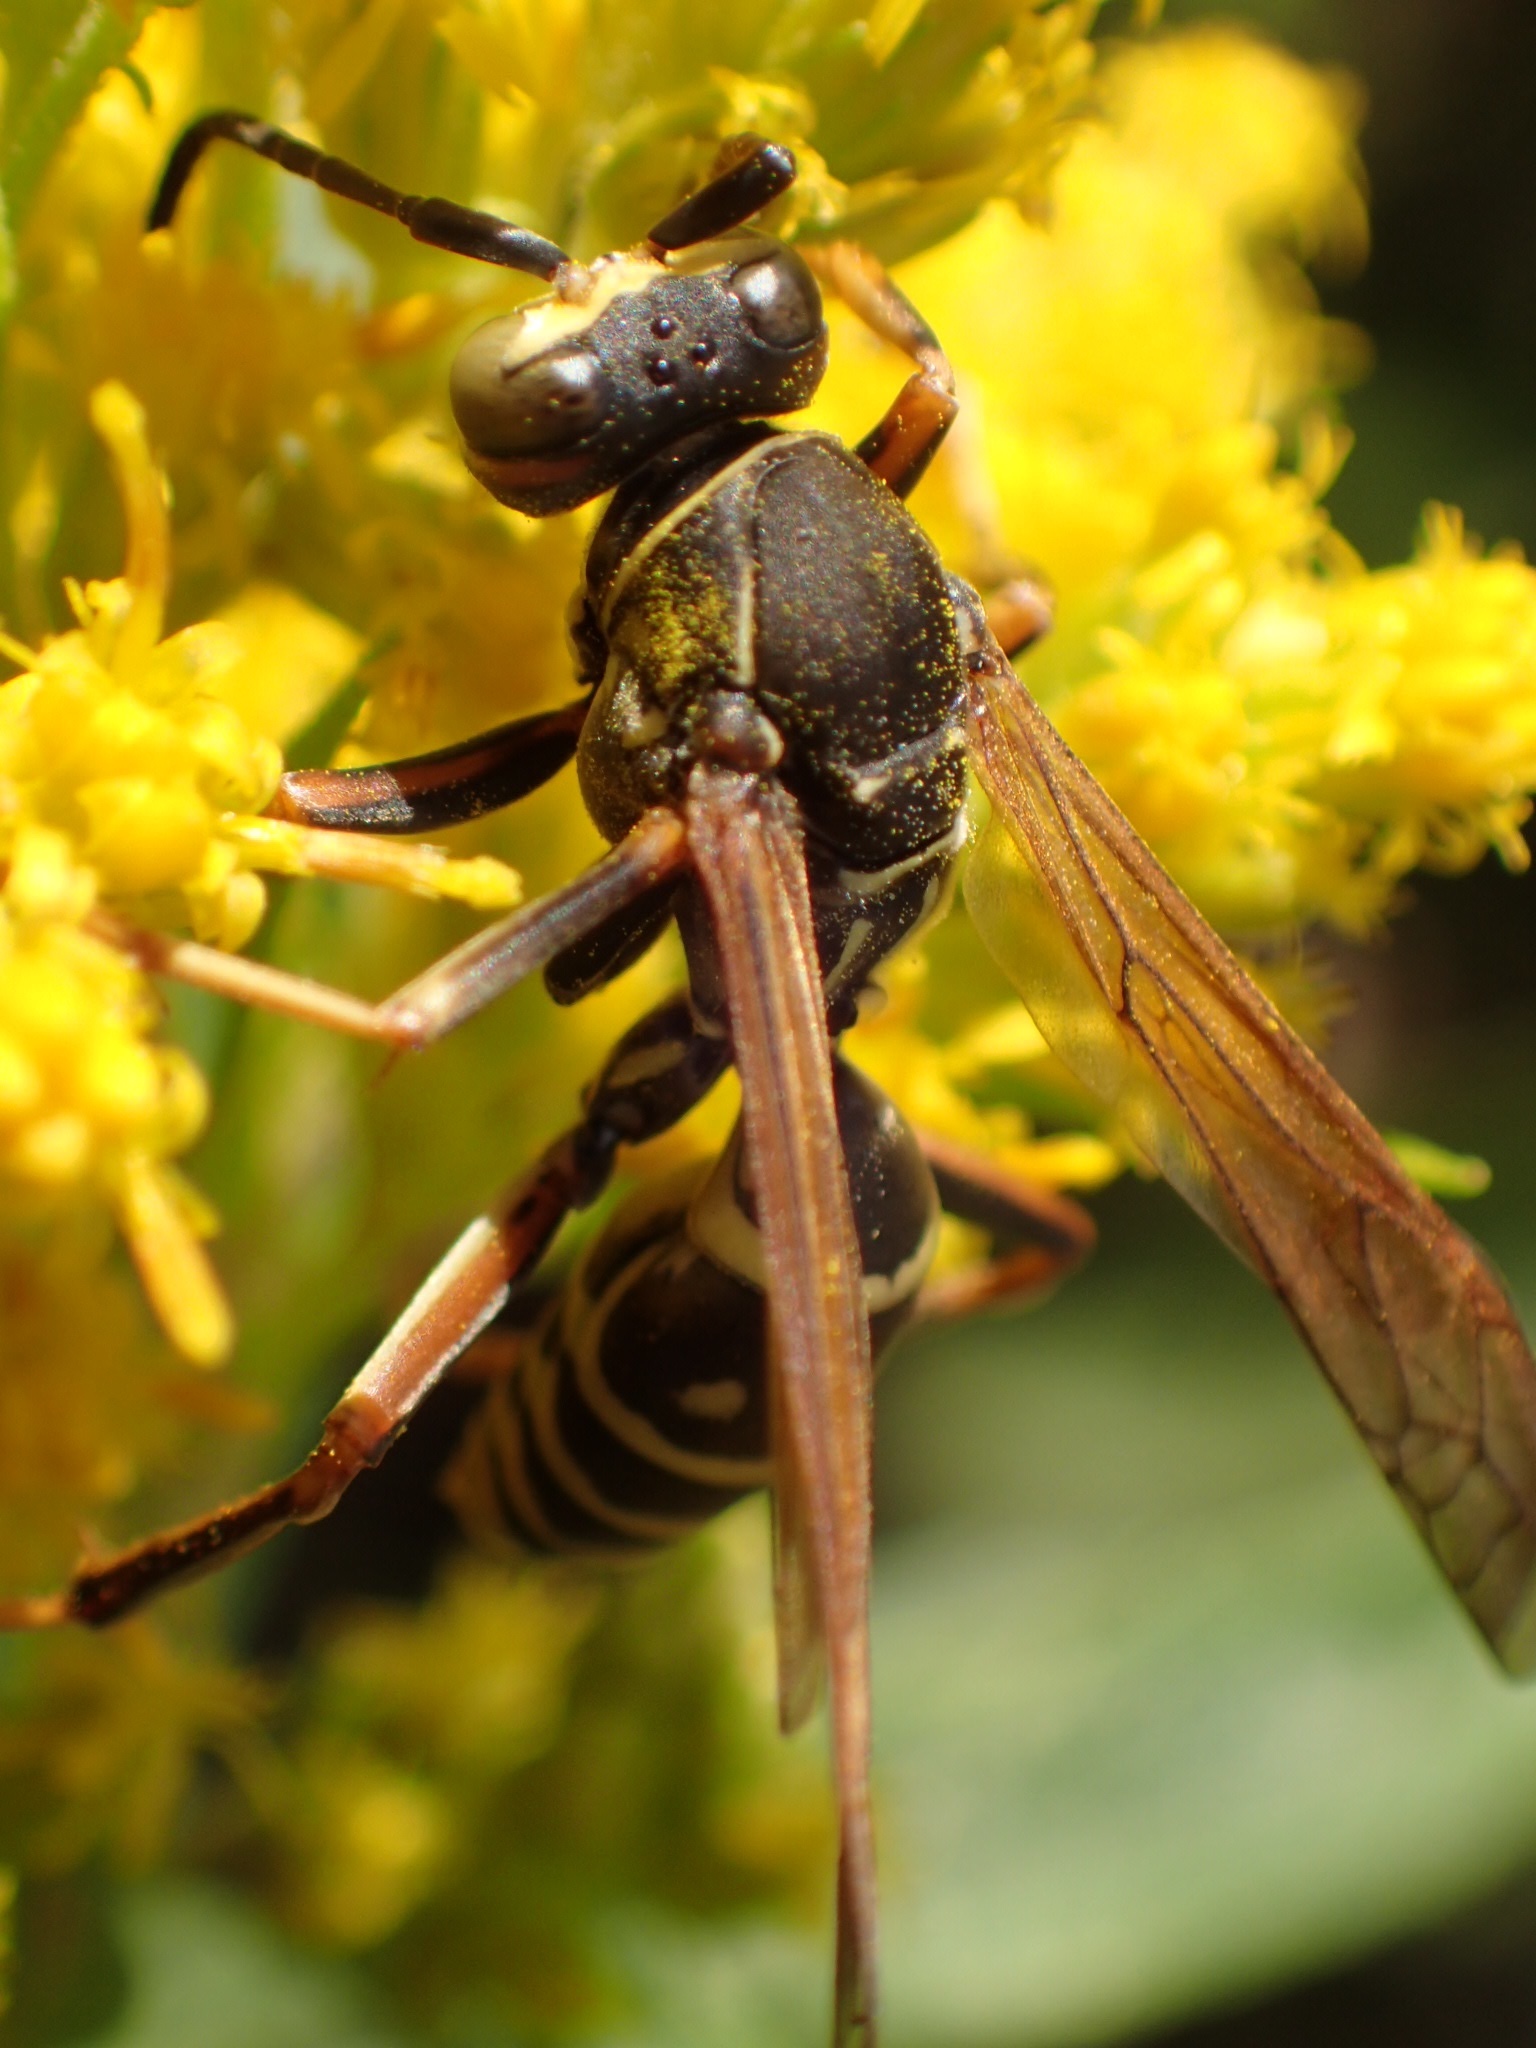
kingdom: Animalia
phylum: Arthropoda
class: Insecta
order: Hymenoptera
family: Eumenidae
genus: Polistes
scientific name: Polistes fuscatus
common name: Dark paper wasp
